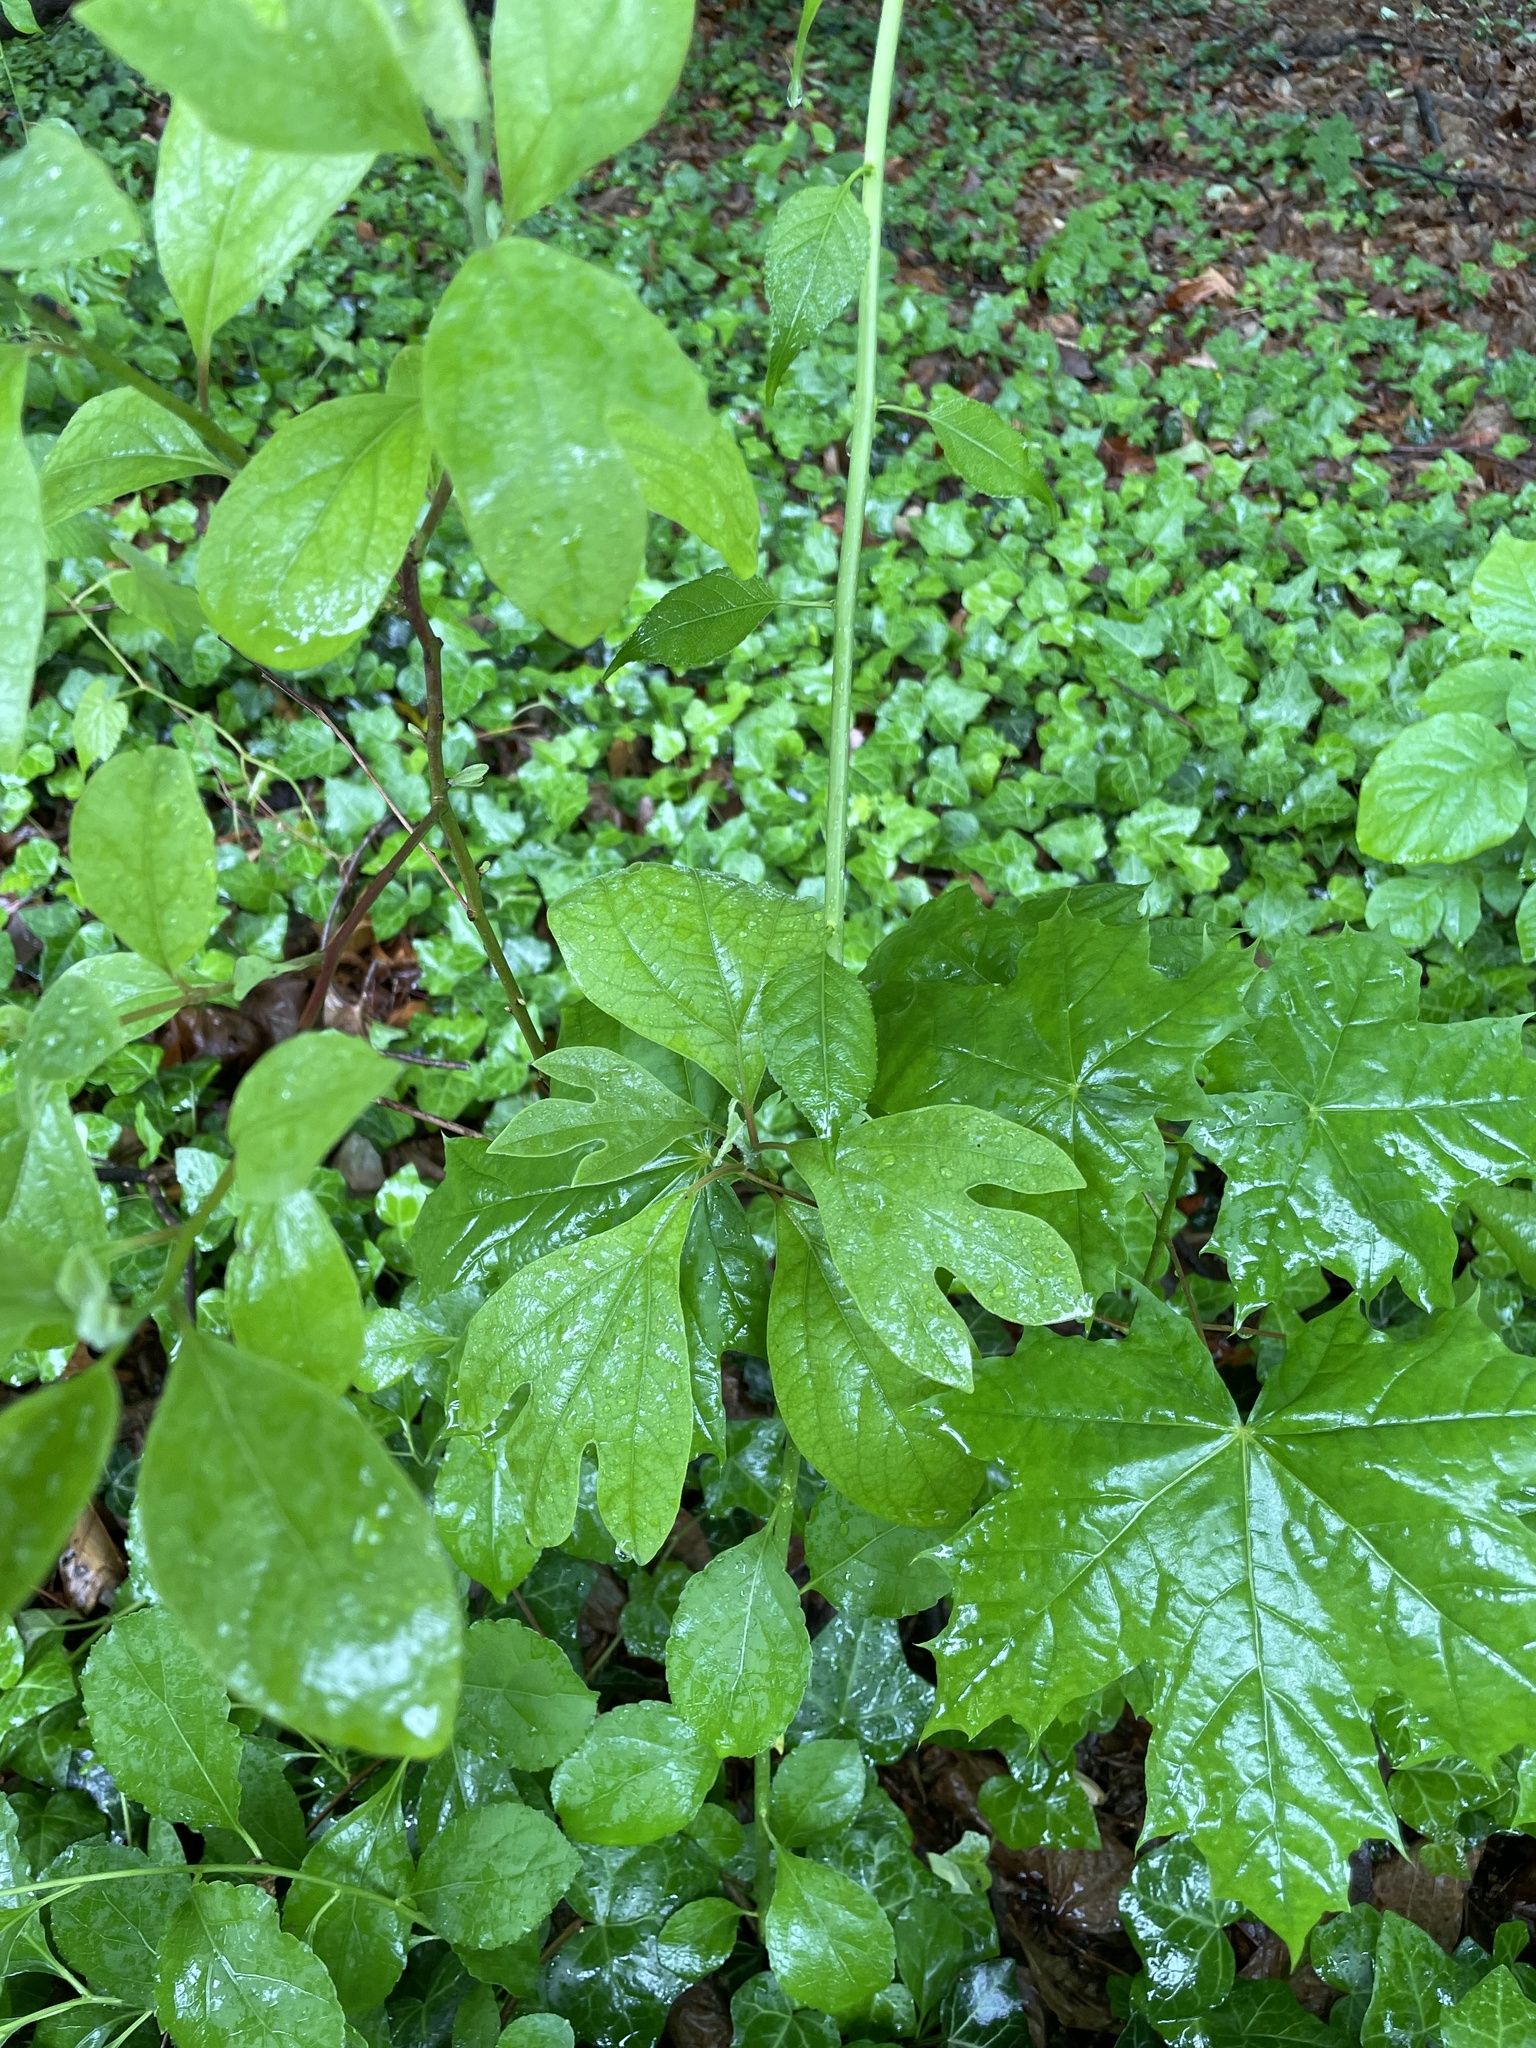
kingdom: Plantae
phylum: Tracheophyta
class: Magnoliopsida
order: Laurales
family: Lauraceae
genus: Sassafras
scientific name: Sassafras albidum
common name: Sassafras
